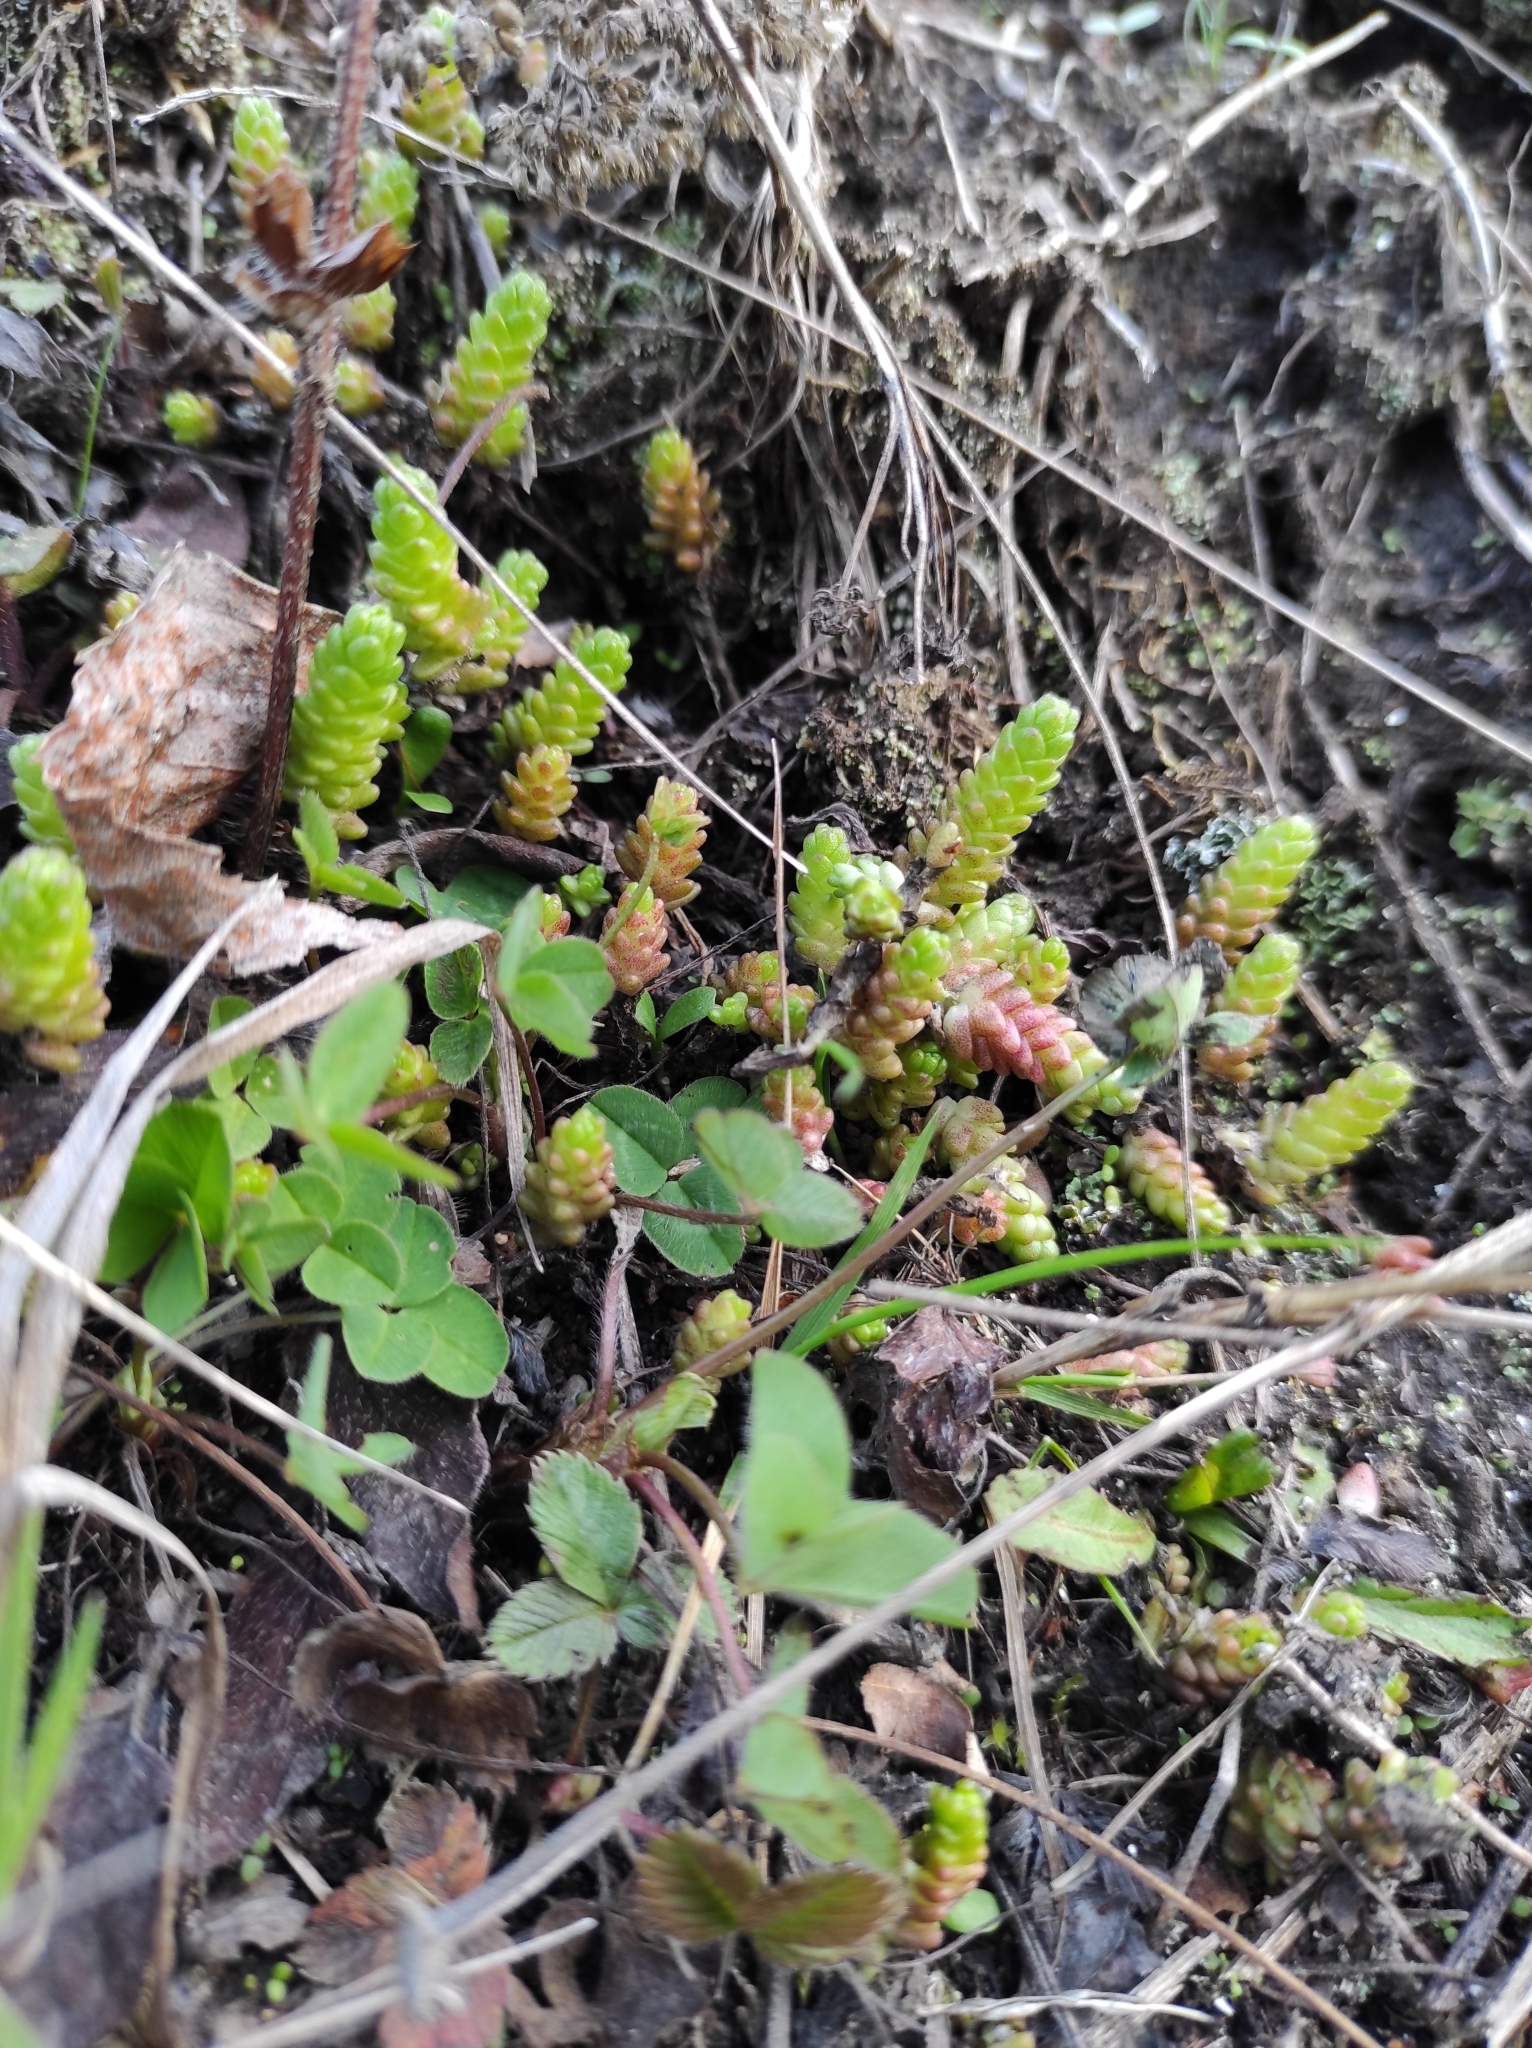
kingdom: Plantae
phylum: Tracheophyta
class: Magnoliopsida
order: Saxifragales
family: Crassulaceae
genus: Sedum
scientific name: Sedum acre
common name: Biting stonecrop
